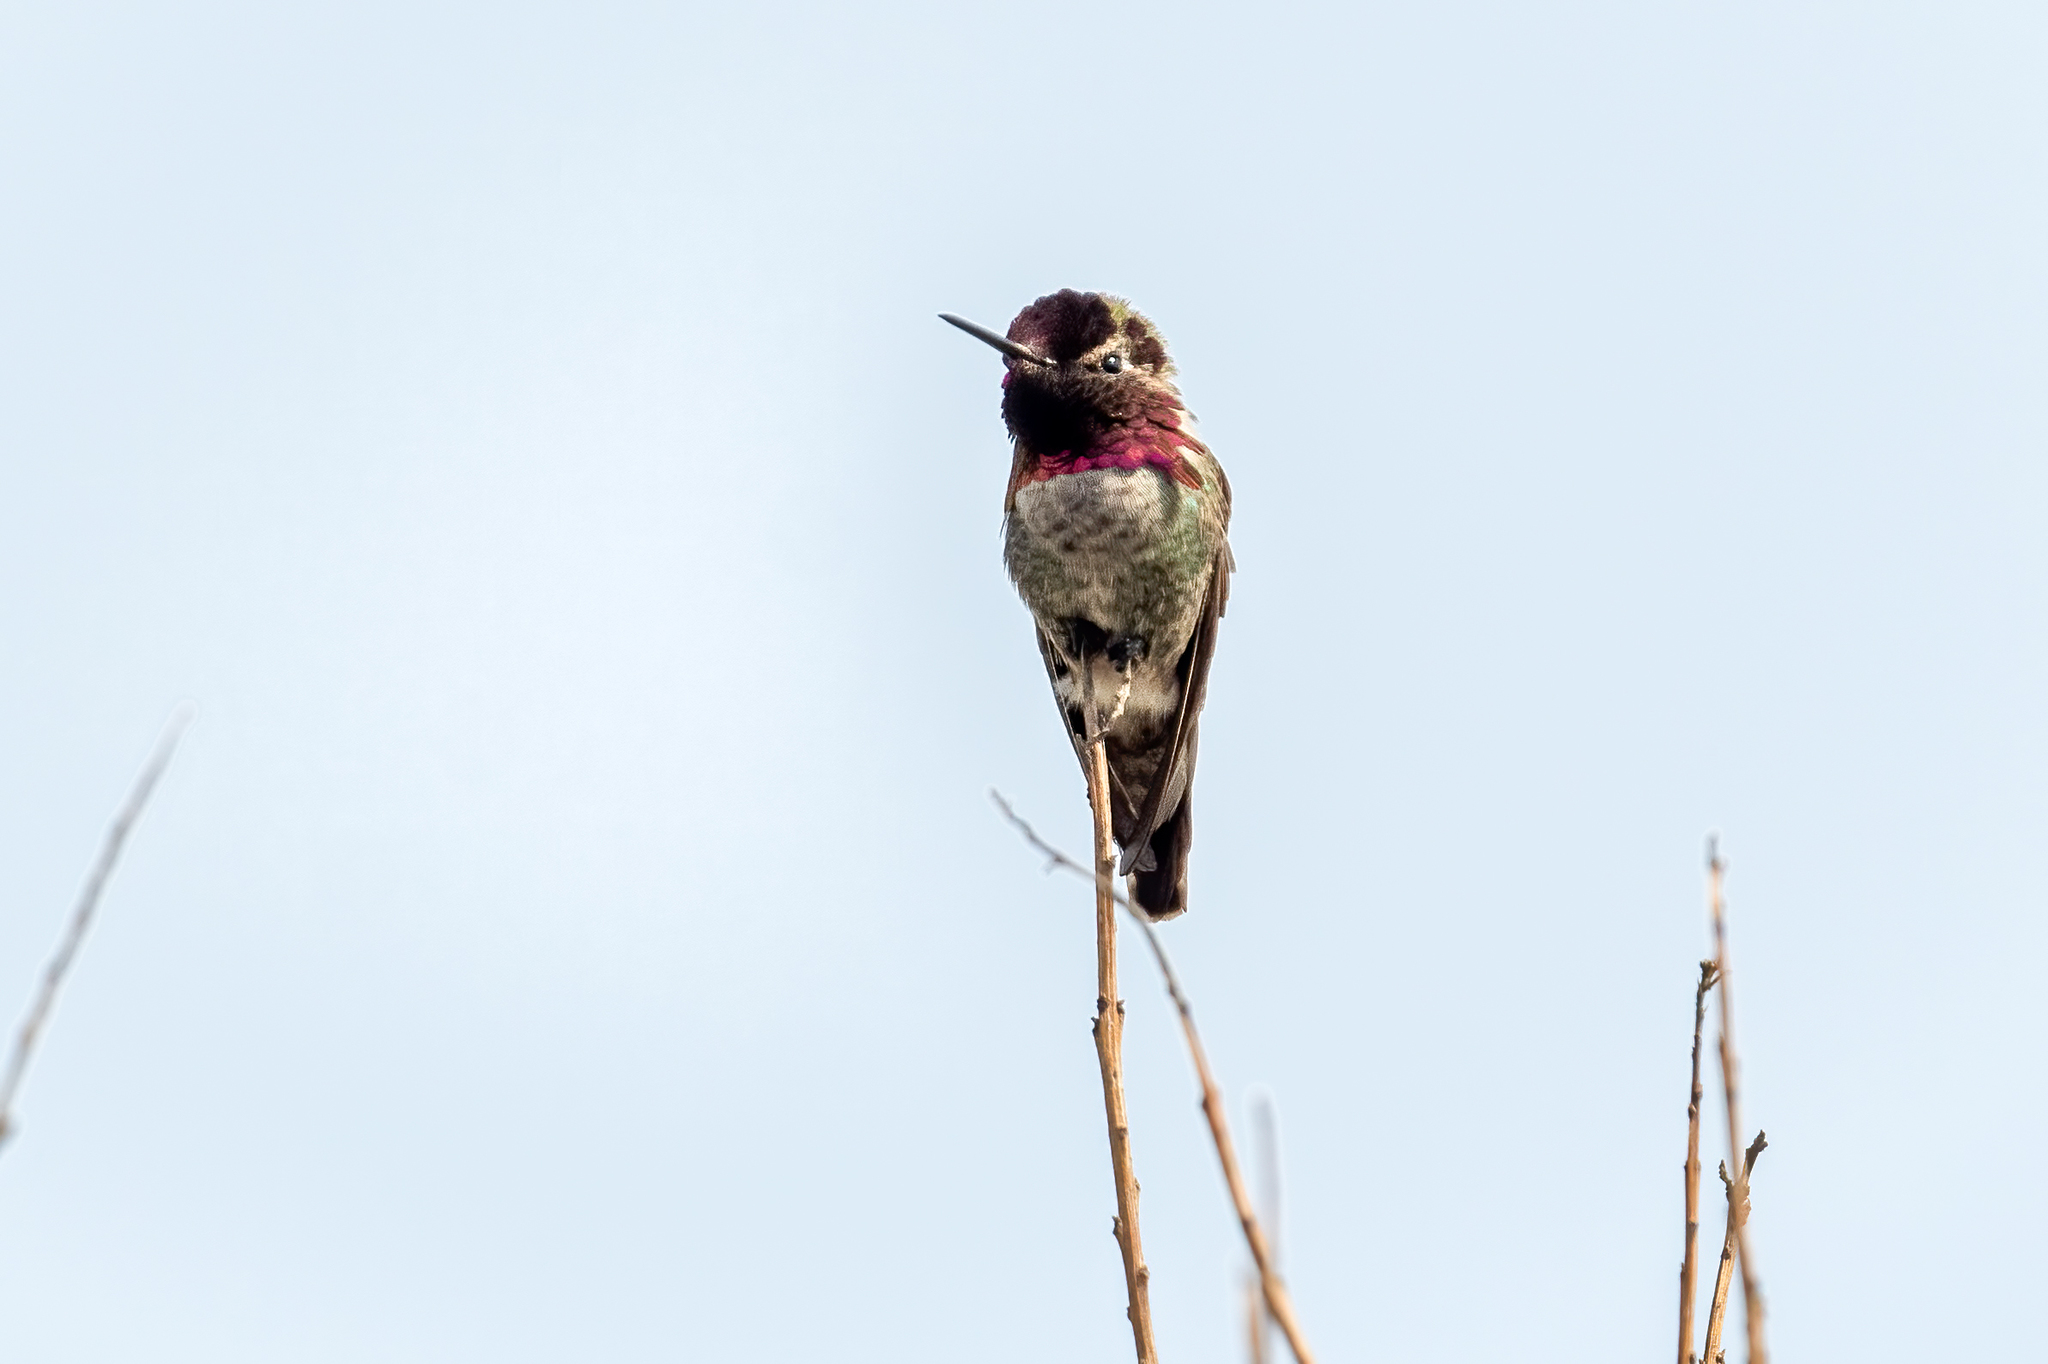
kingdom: Animalia
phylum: Chordata
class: Aves
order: Apodiformes
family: Trochilidae
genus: Calypte
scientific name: Calypte anna
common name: Anna's hummingbird
